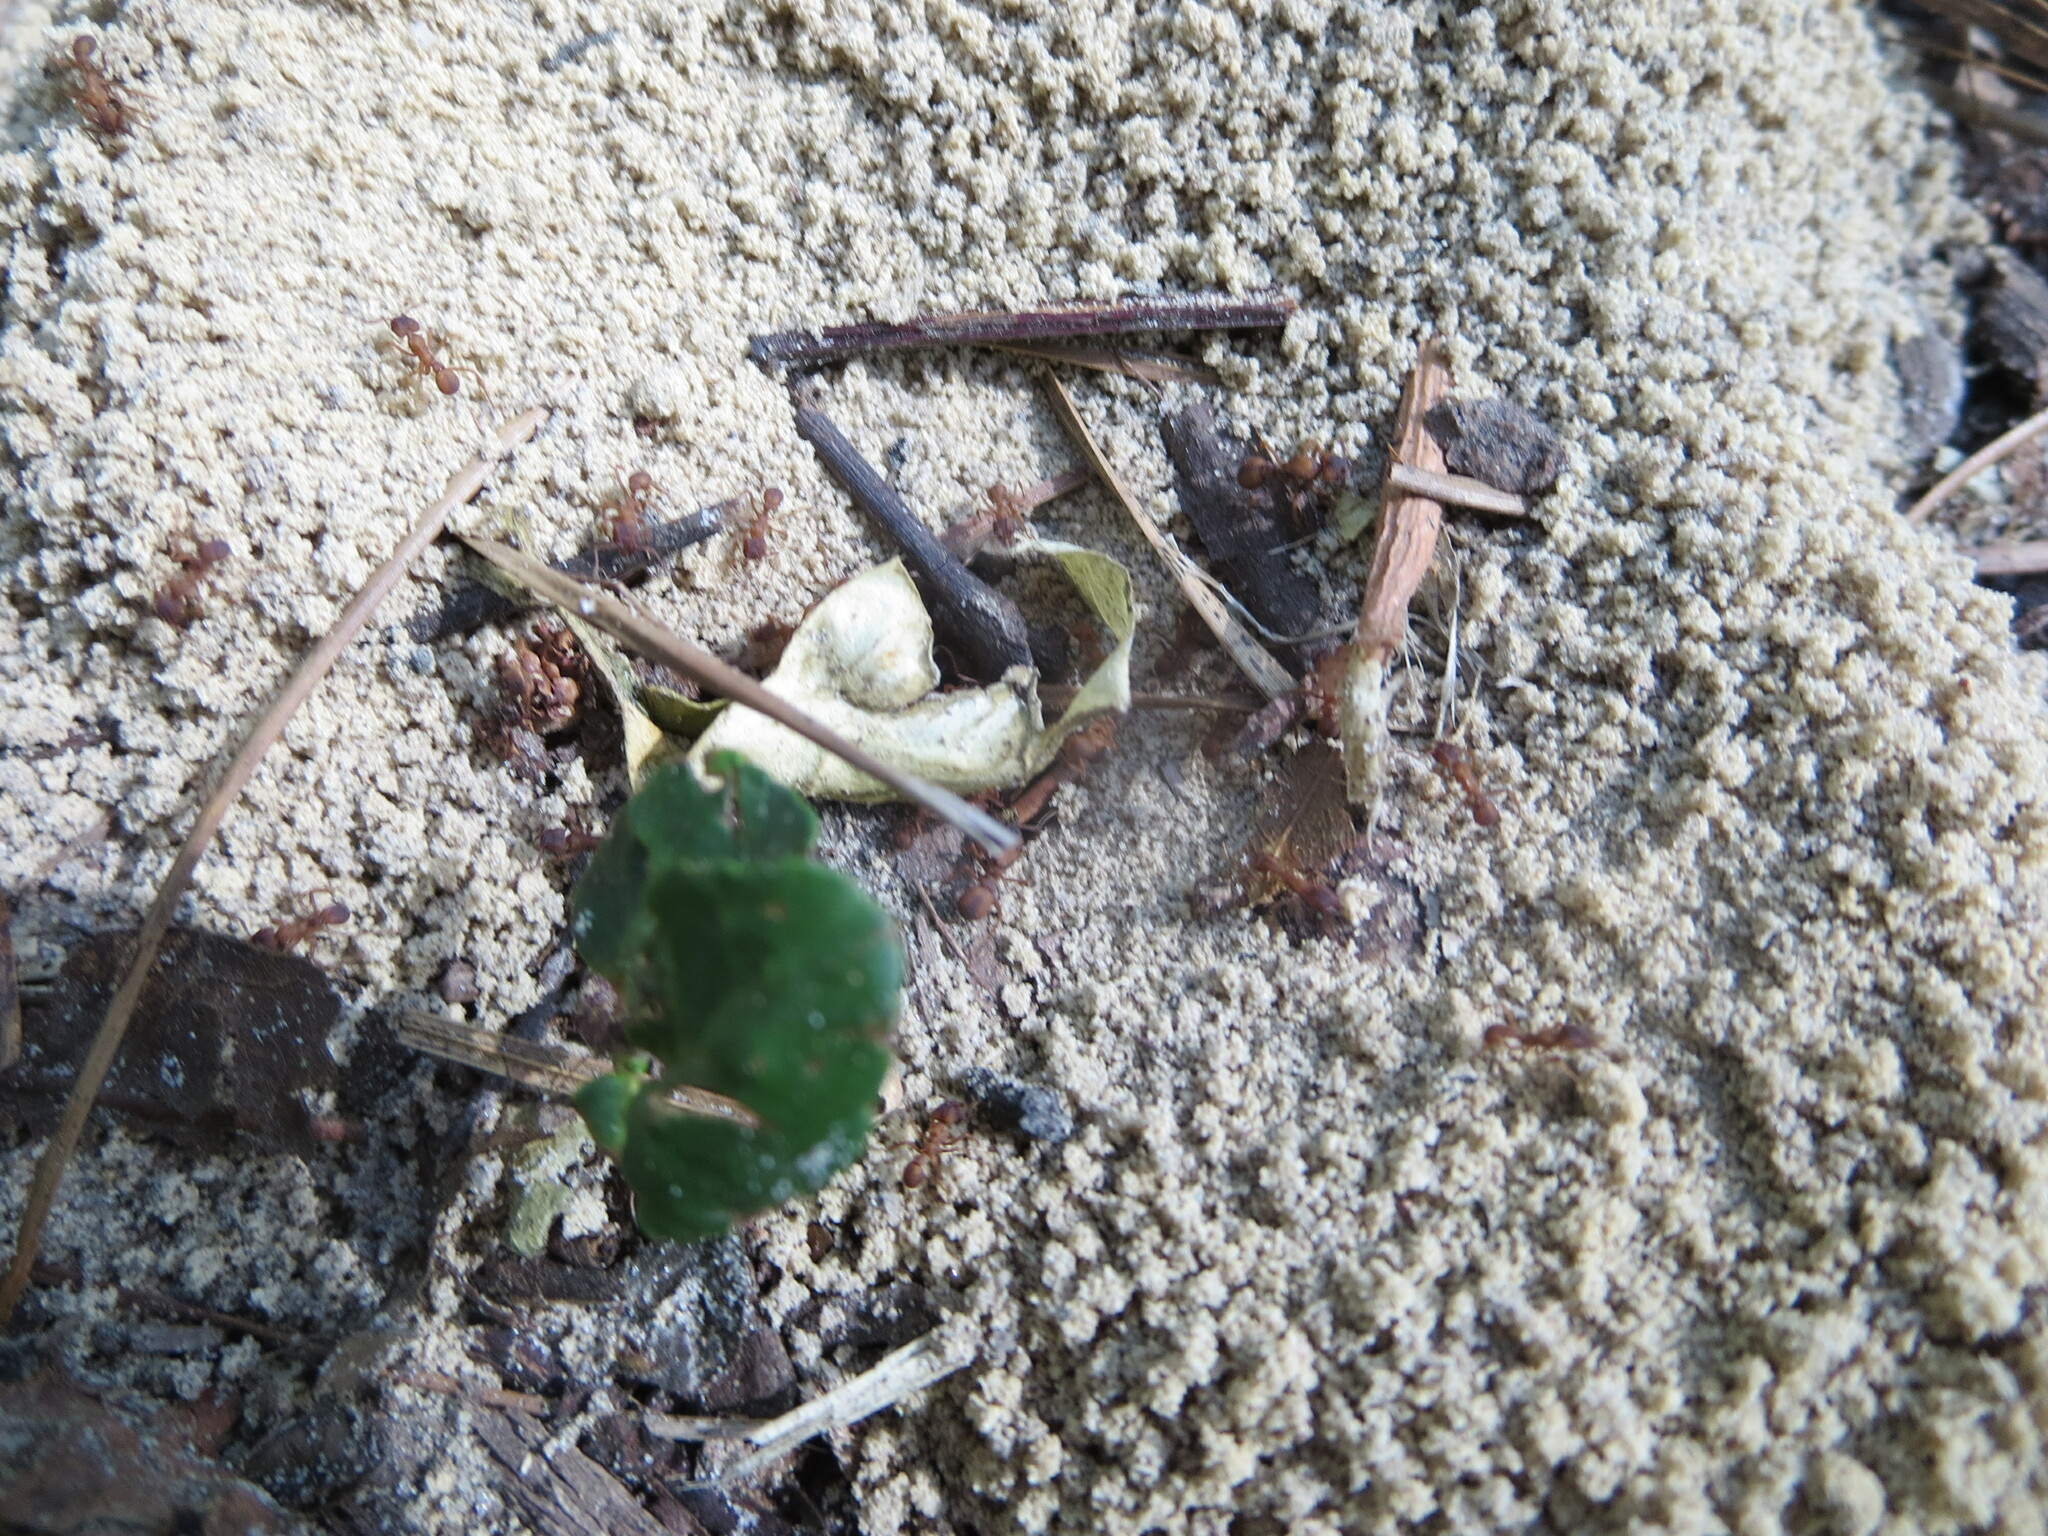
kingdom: Animalia
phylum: Arthropoda
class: Insecta
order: Hymenoptera
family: Formicidae
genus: Trachymyrmex
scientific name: Trachymyrmex septentrionalis
